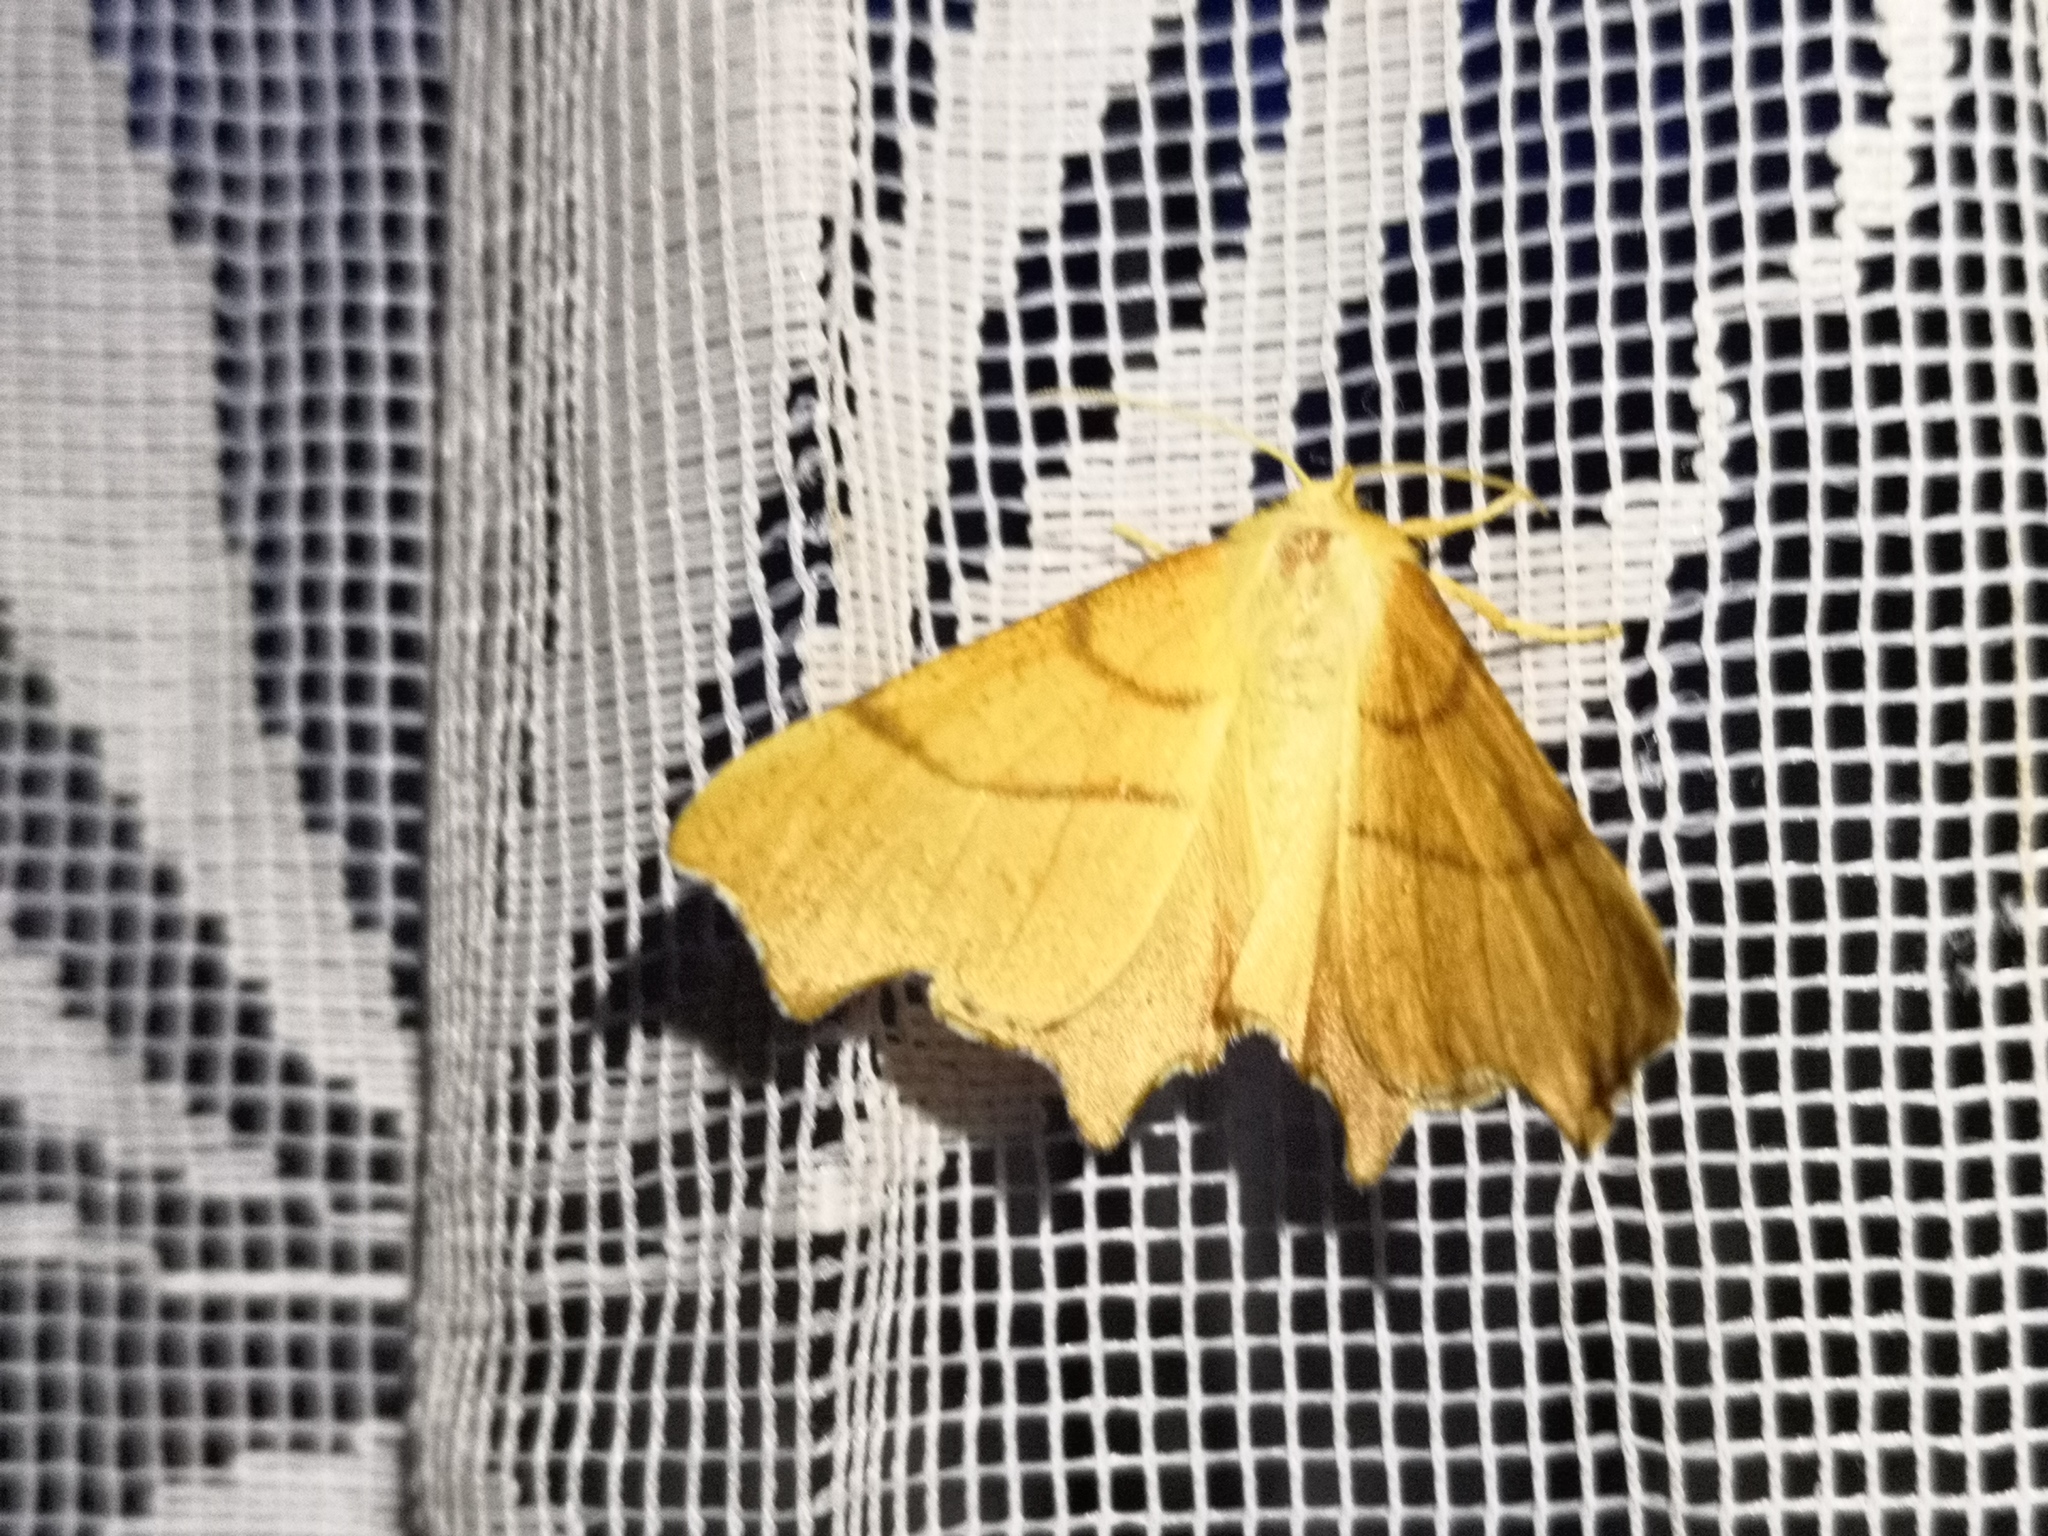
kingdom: Animalia
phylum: Arthropoda
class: Insecta
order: Lepidoptera
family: Geometridae
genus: Ennomos
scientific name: Ennomos erosaria
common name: September thorn
